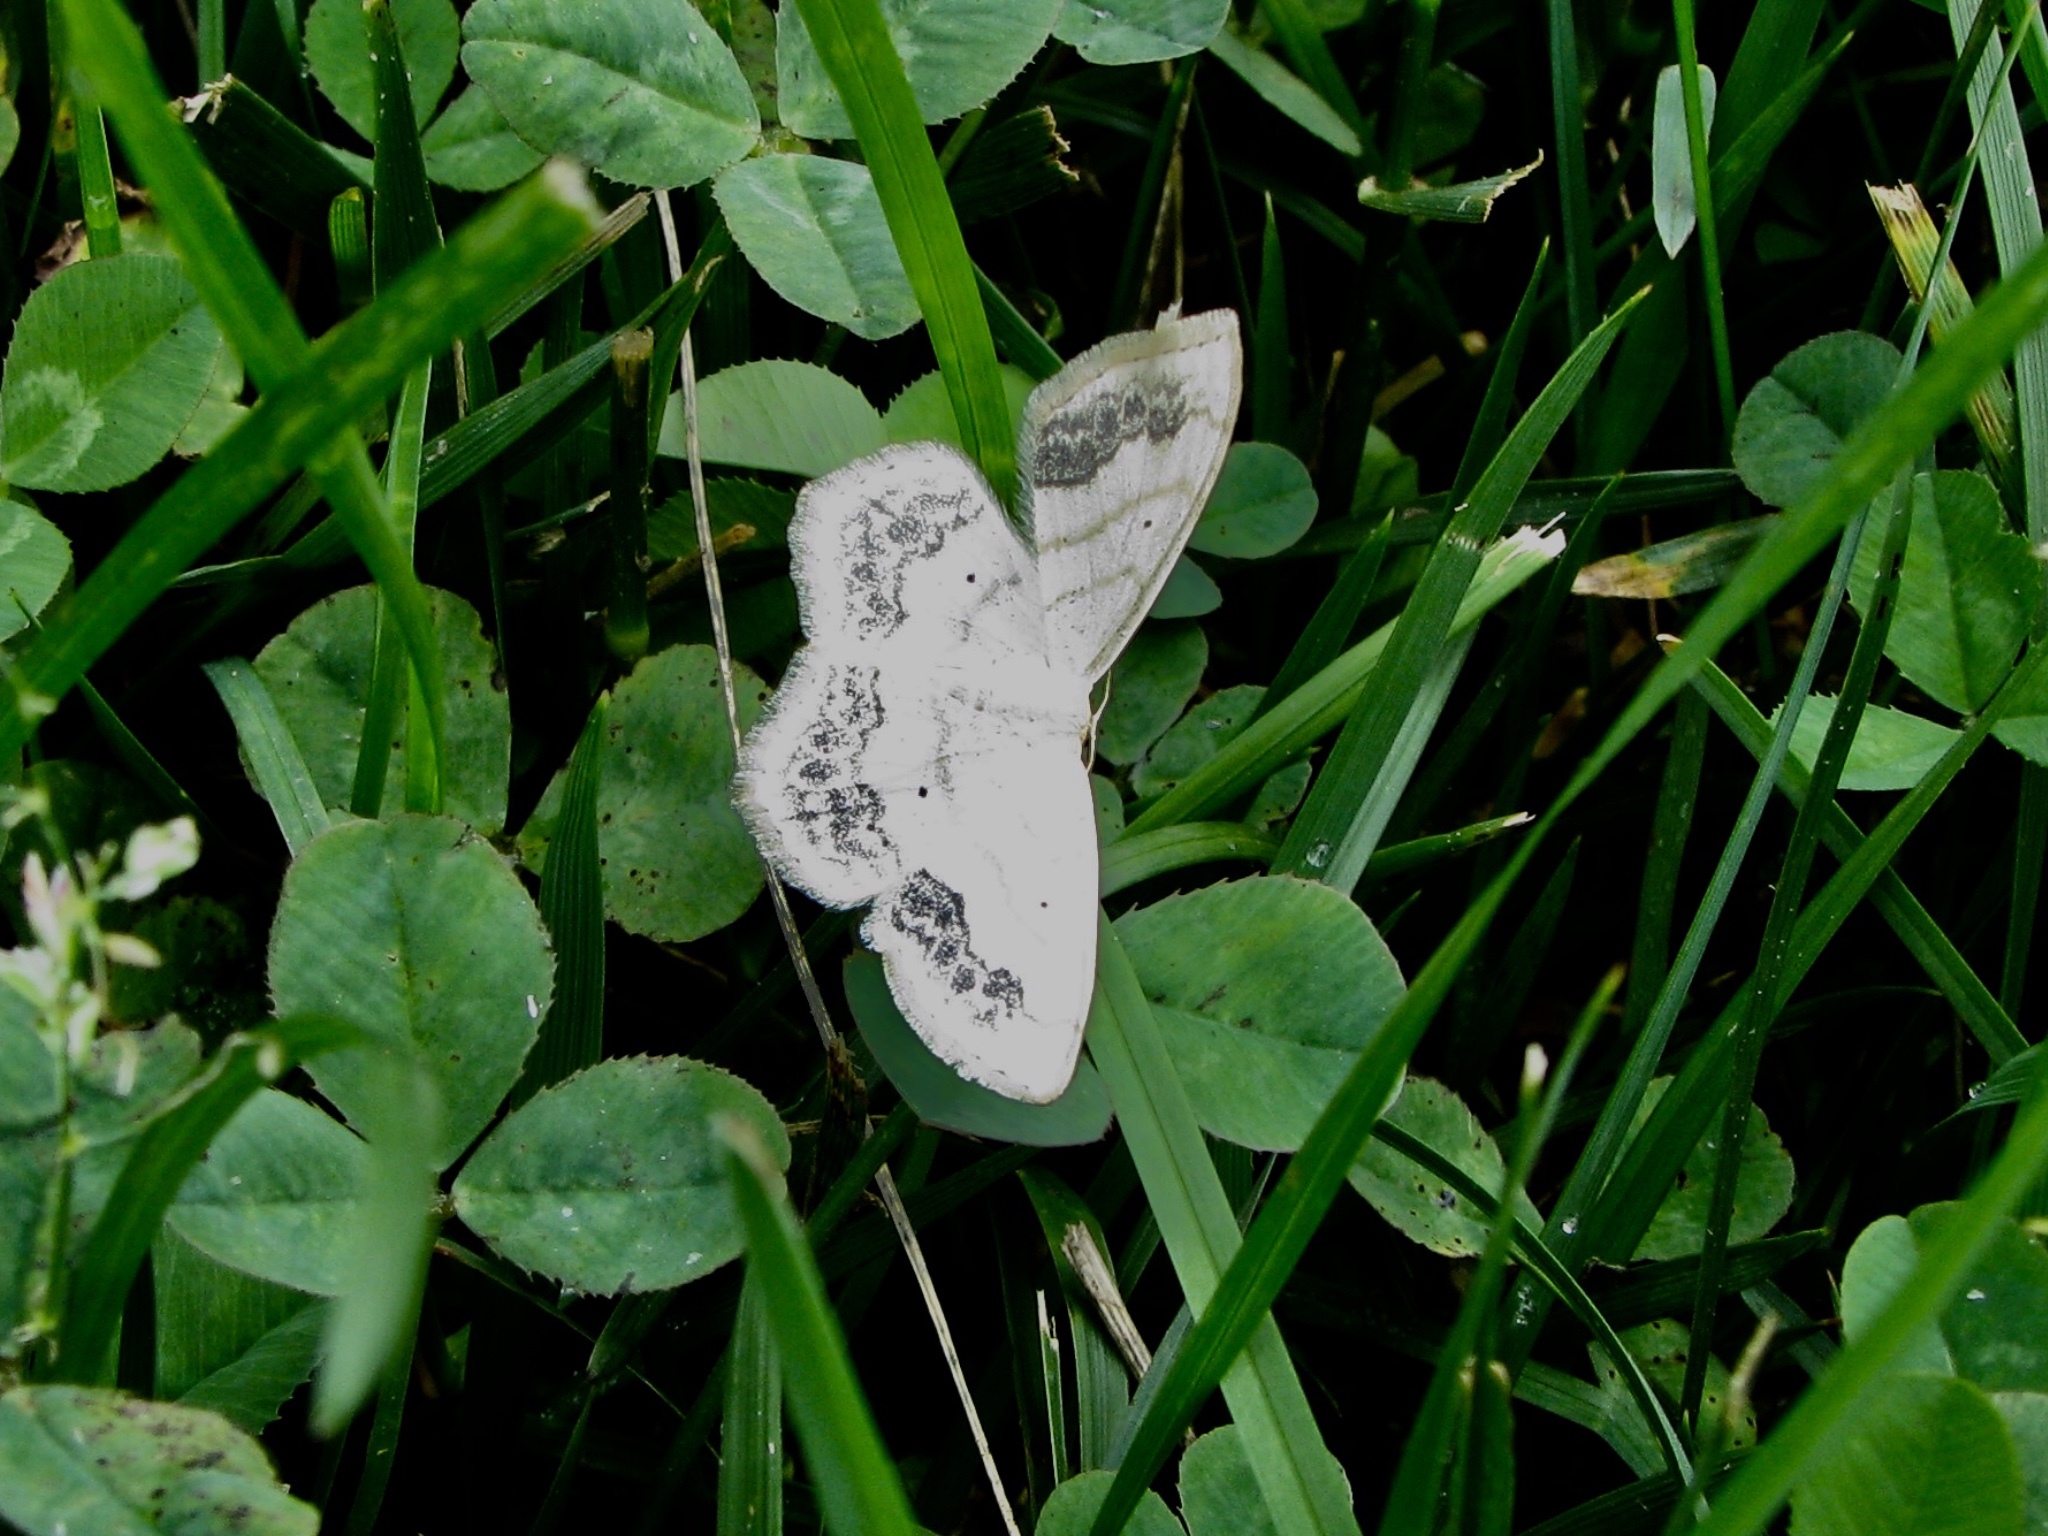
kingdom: Animalia
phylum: Arthropoda
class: Insecta
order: Lepidoptera
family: Geometridae
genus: Scopula
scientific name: Scopula limboundata
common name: Large lace border
